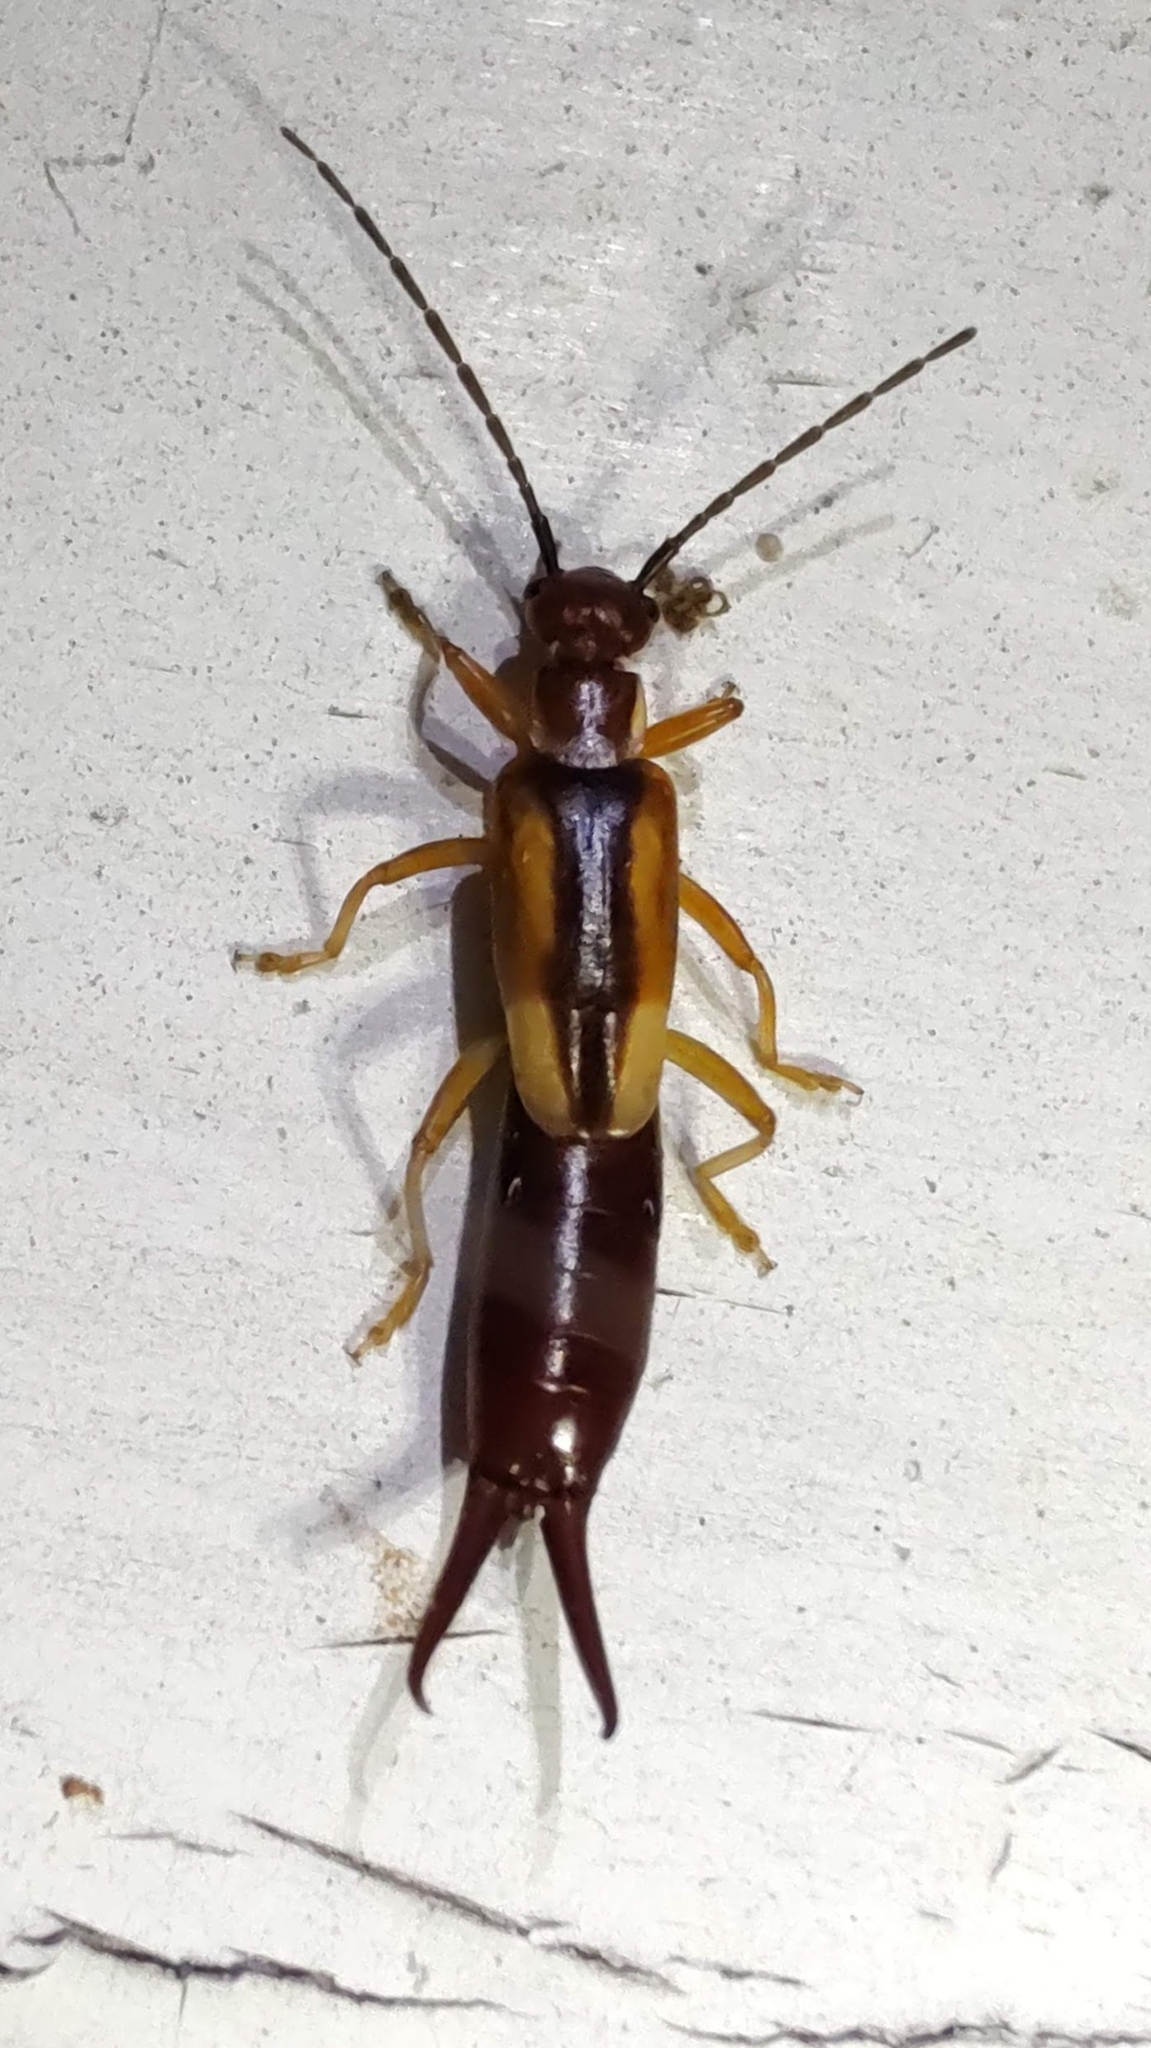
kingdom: Animalia
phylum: Arthropoda
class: Insecta
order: Dermaptera
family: Forficulidae
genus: Doru
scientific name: Doru lineare
